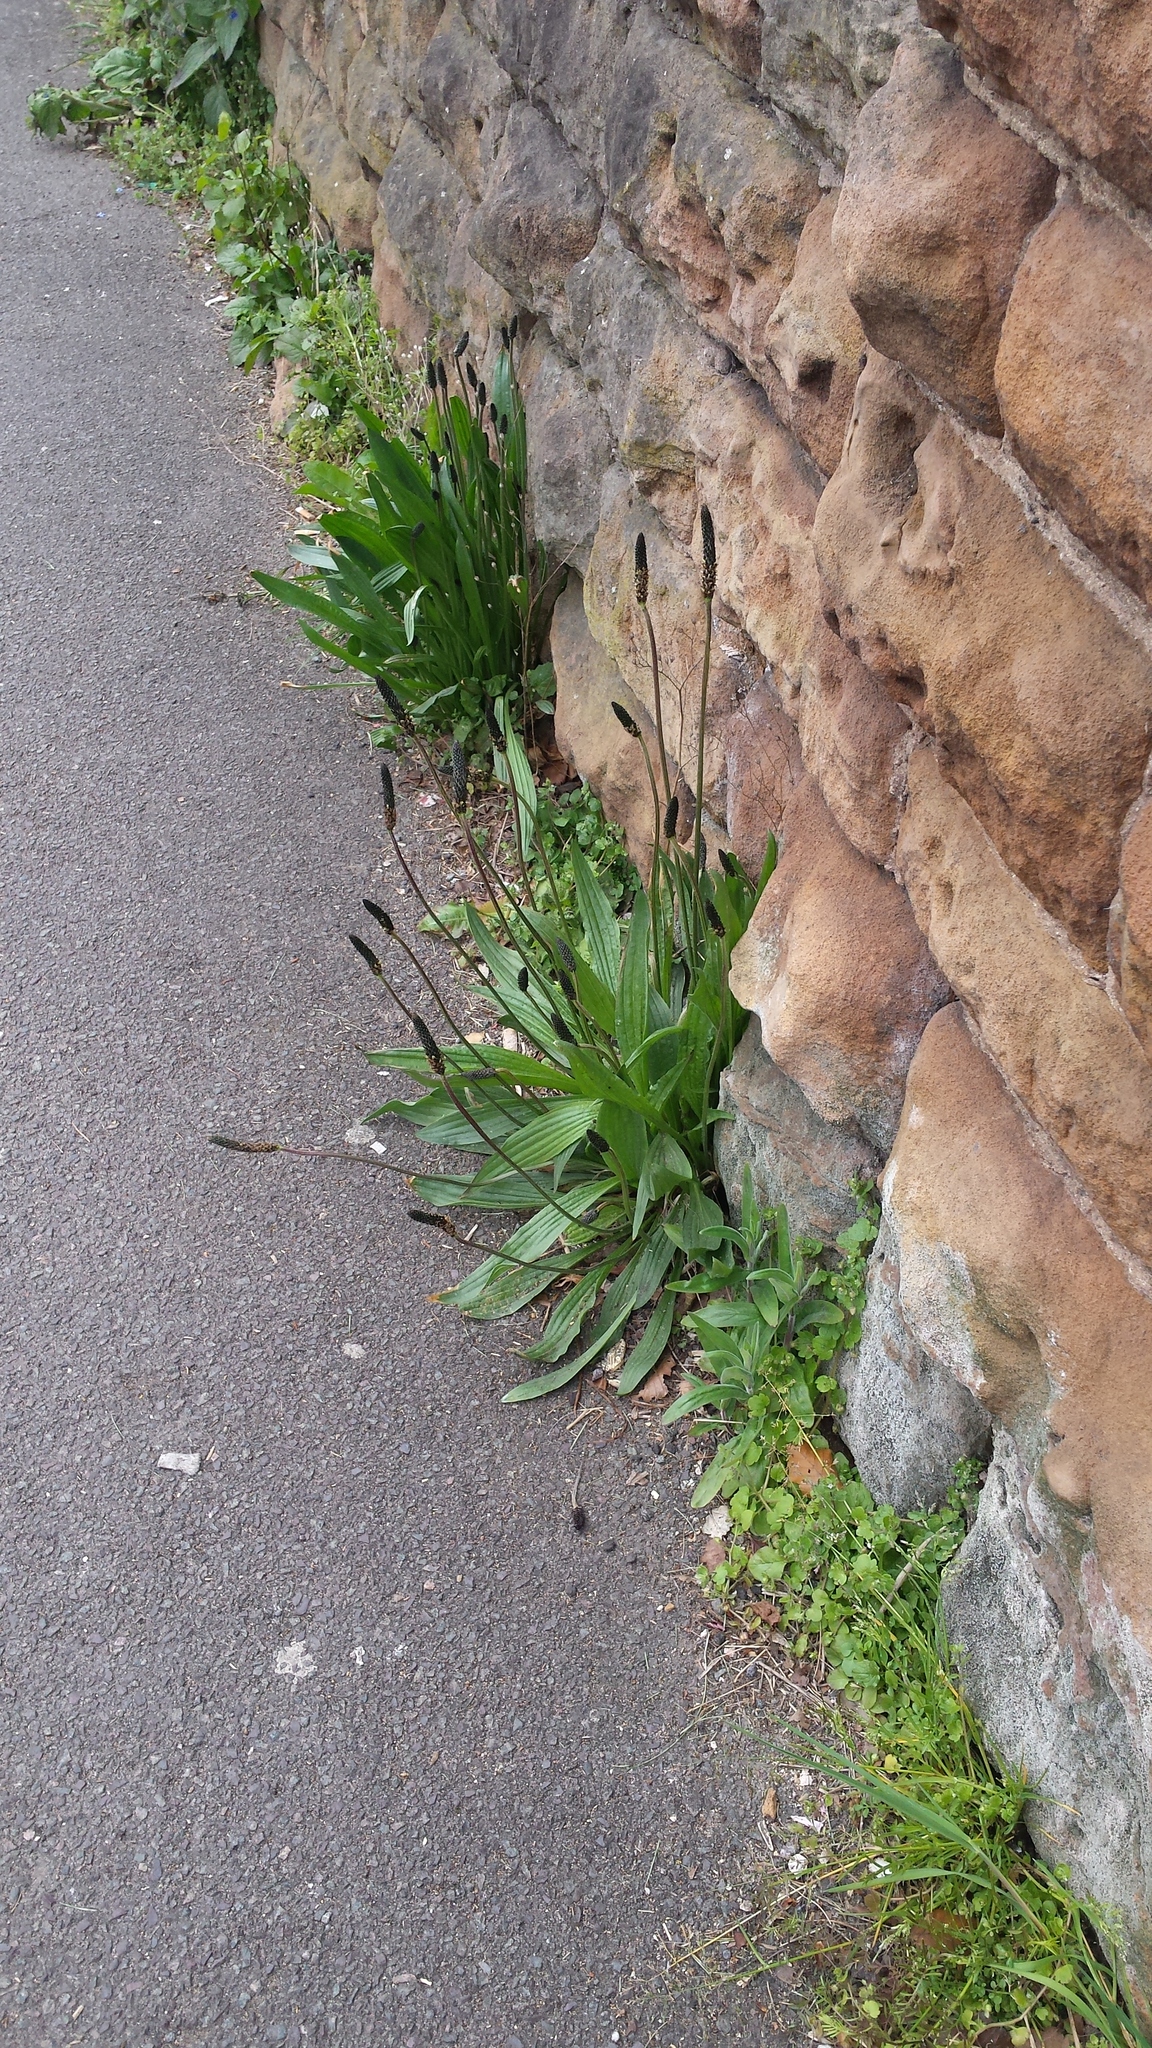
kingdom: Plantae
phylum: Tracheophyta
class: Magnoliopsida
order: Lamiales
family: Plantaginaceae
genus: Plantago
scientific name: Plantago lanceolata
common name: Ribwort plantain
